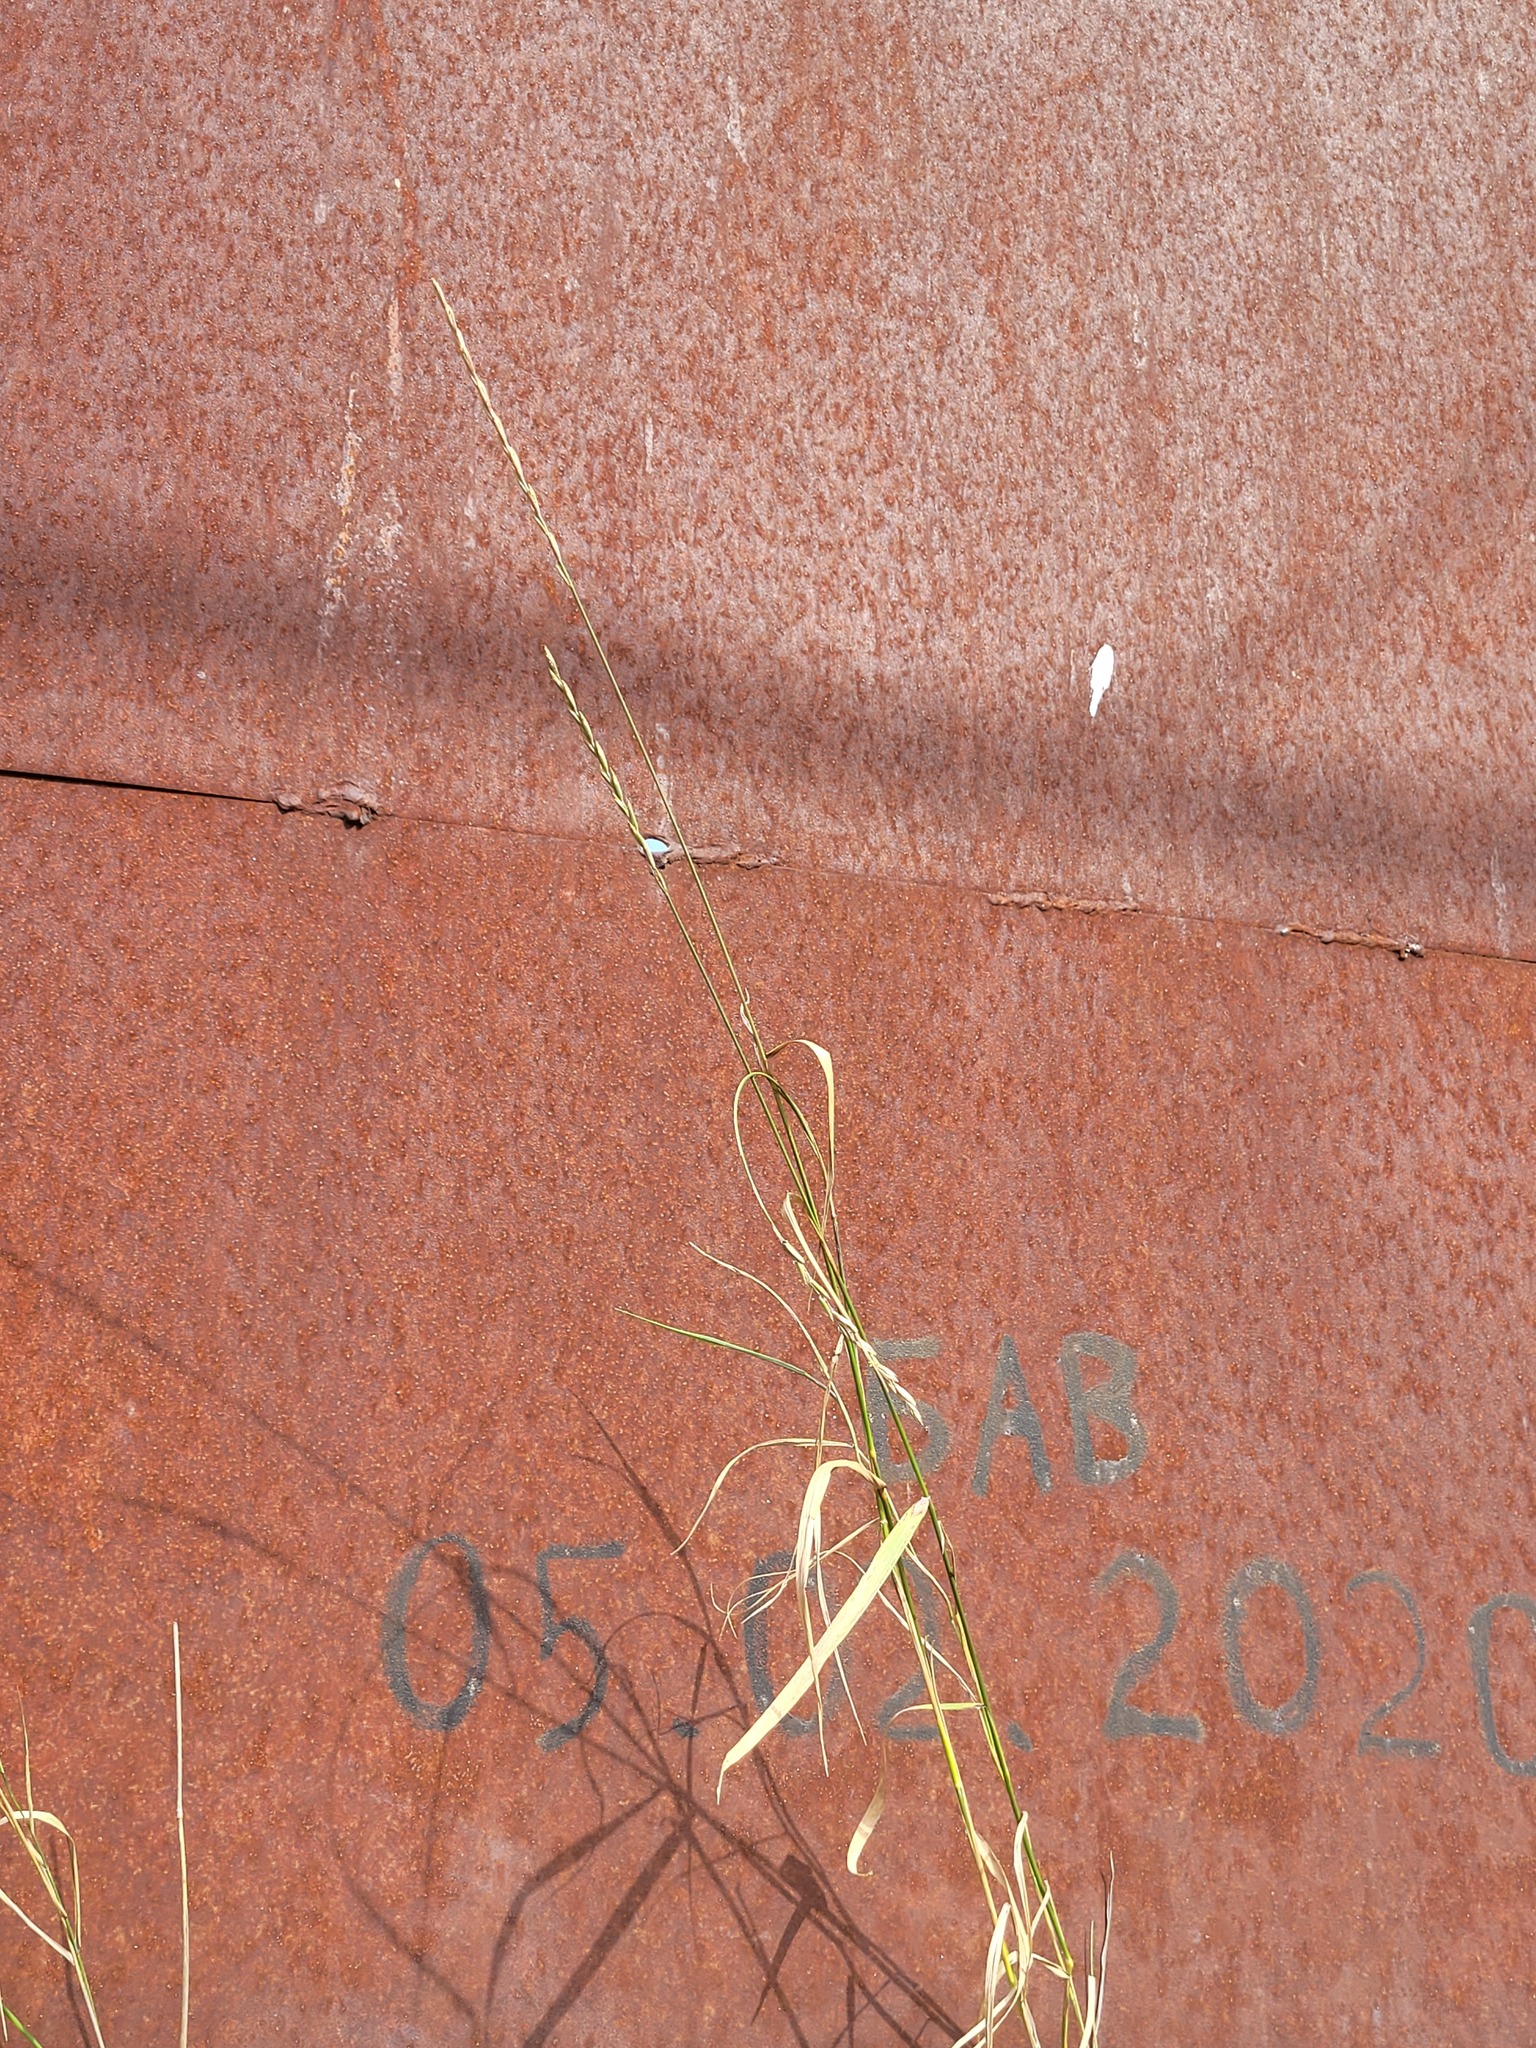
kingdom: Plantae
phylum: Tracheophyta
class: Liliopsida
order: Poales
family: Poaceae
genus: Elymus
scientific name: Elymus repens
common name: Quackgrass
